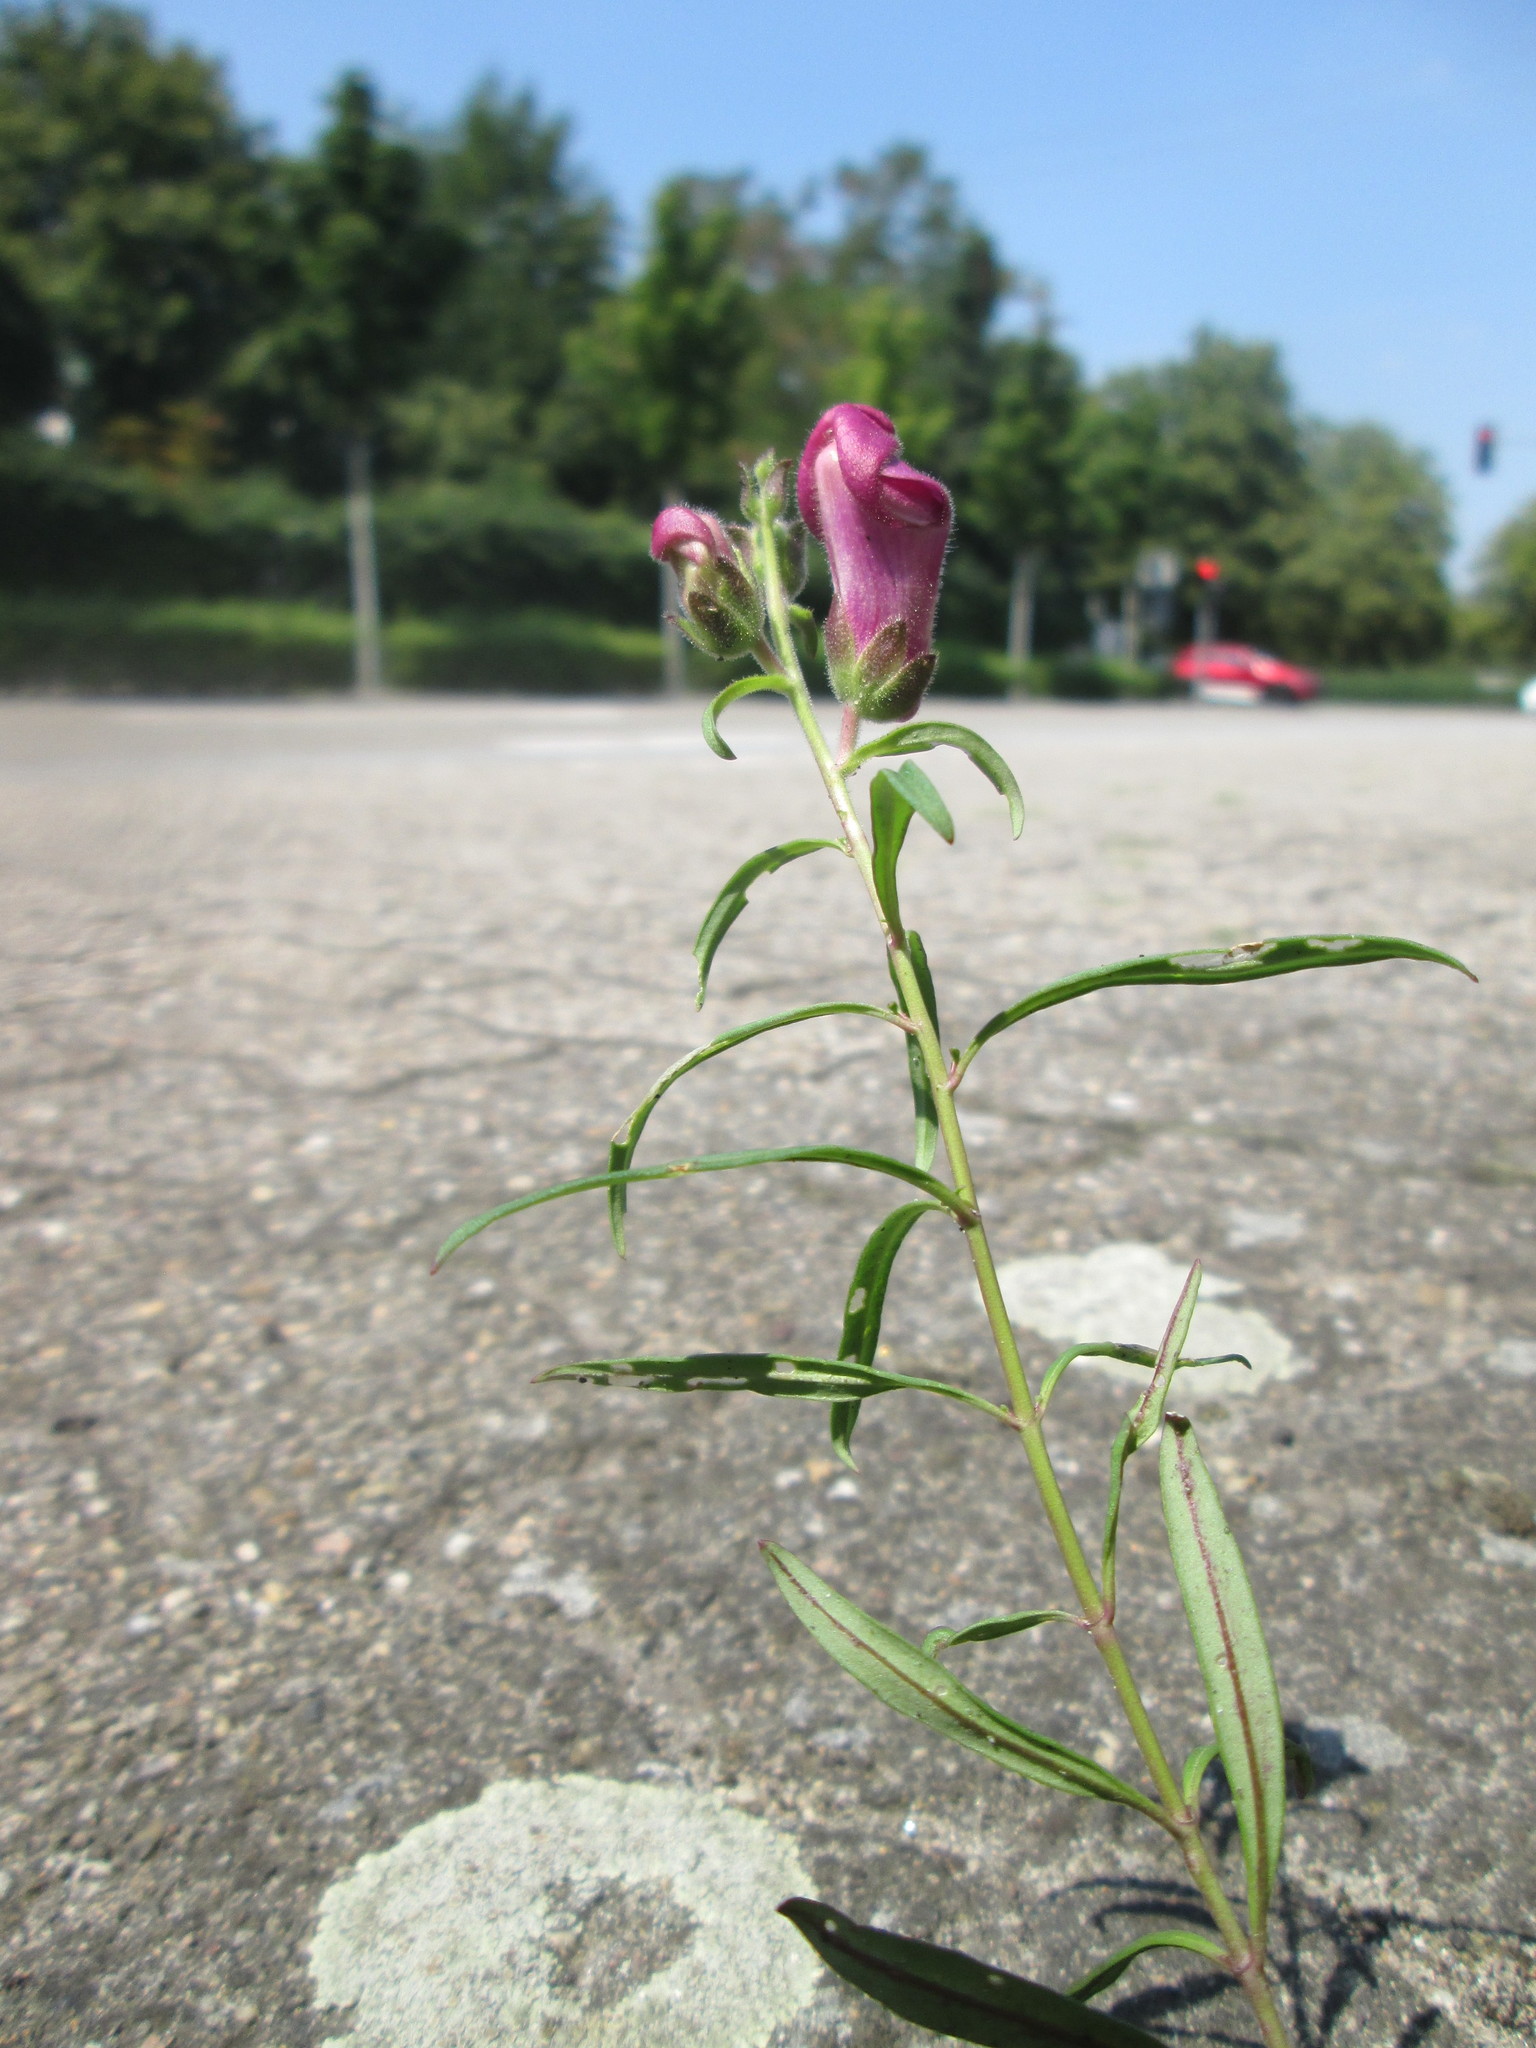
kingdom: Plantae
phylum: Tracheophyta
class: Magnoliopsida
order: Lamiales
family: Plantaginaceae
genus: Antirrhinum
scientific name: Antirrhinum majus
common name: Snapdragon
